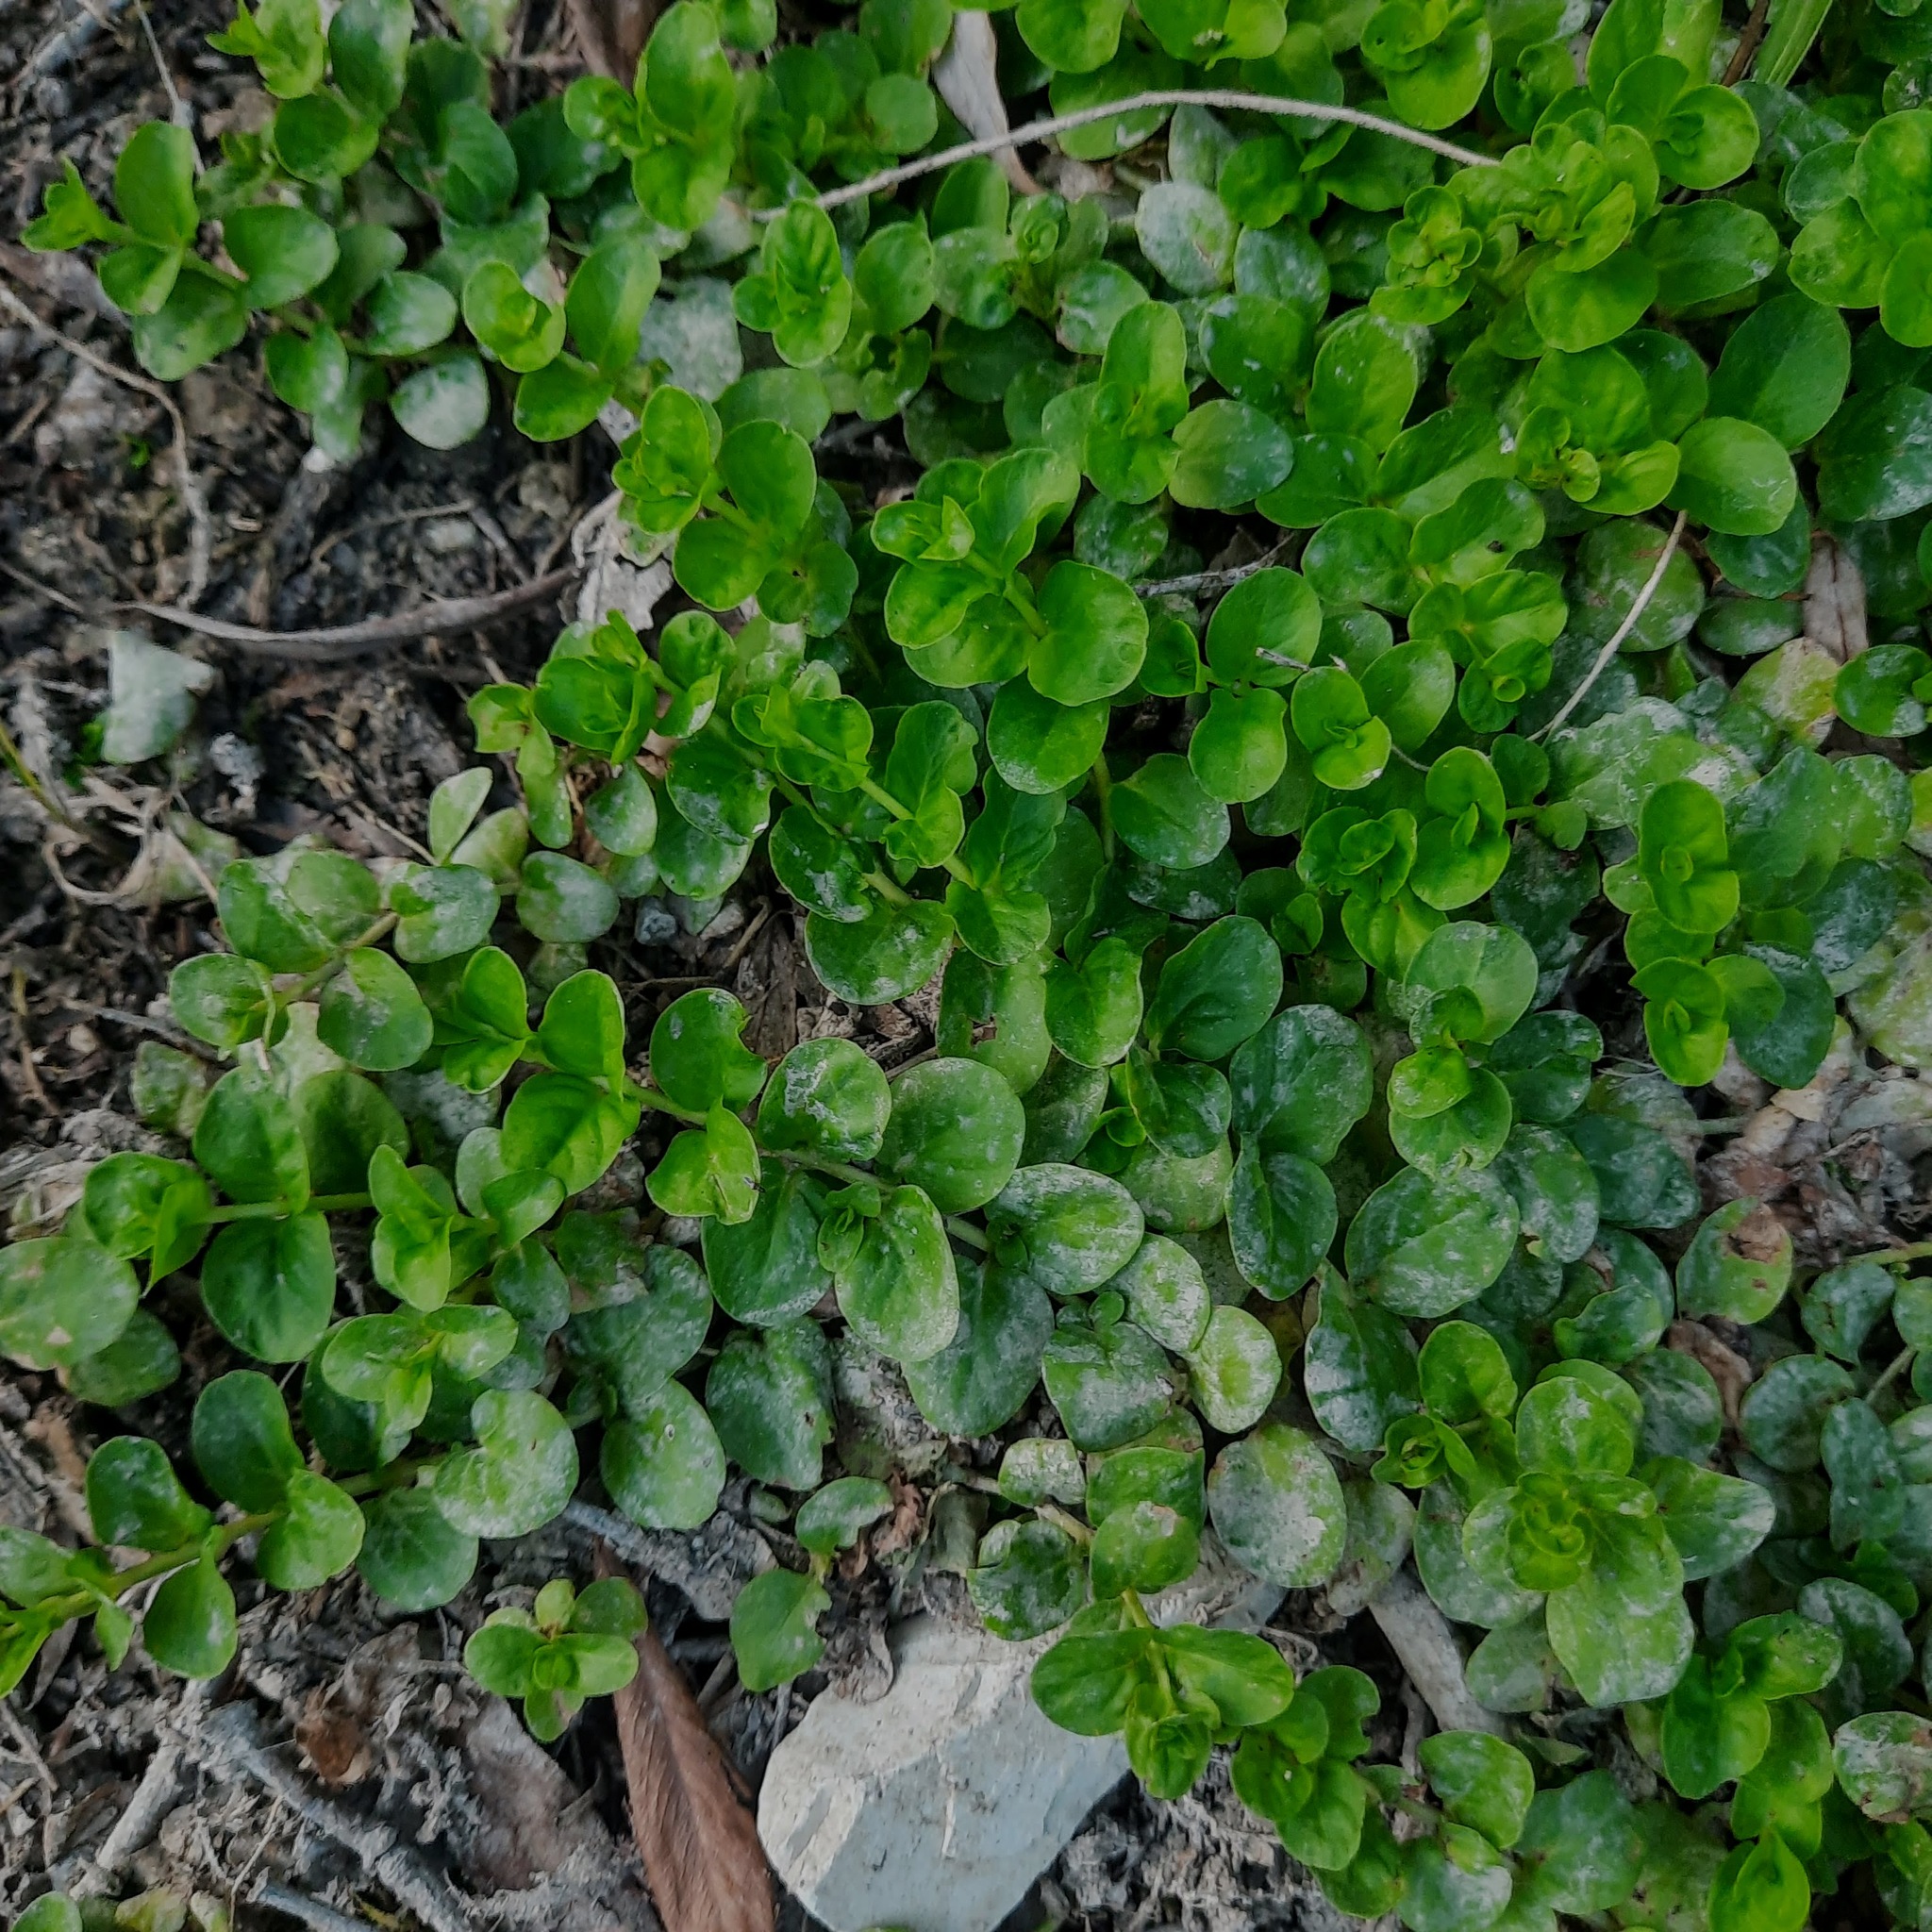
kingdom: Plantae
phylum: Tracheophyta
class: Magnoliopsida
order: Ericales
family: Primulaceae
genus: Lysimachia
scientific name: Lysimachia nummularia
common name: Moneywort
